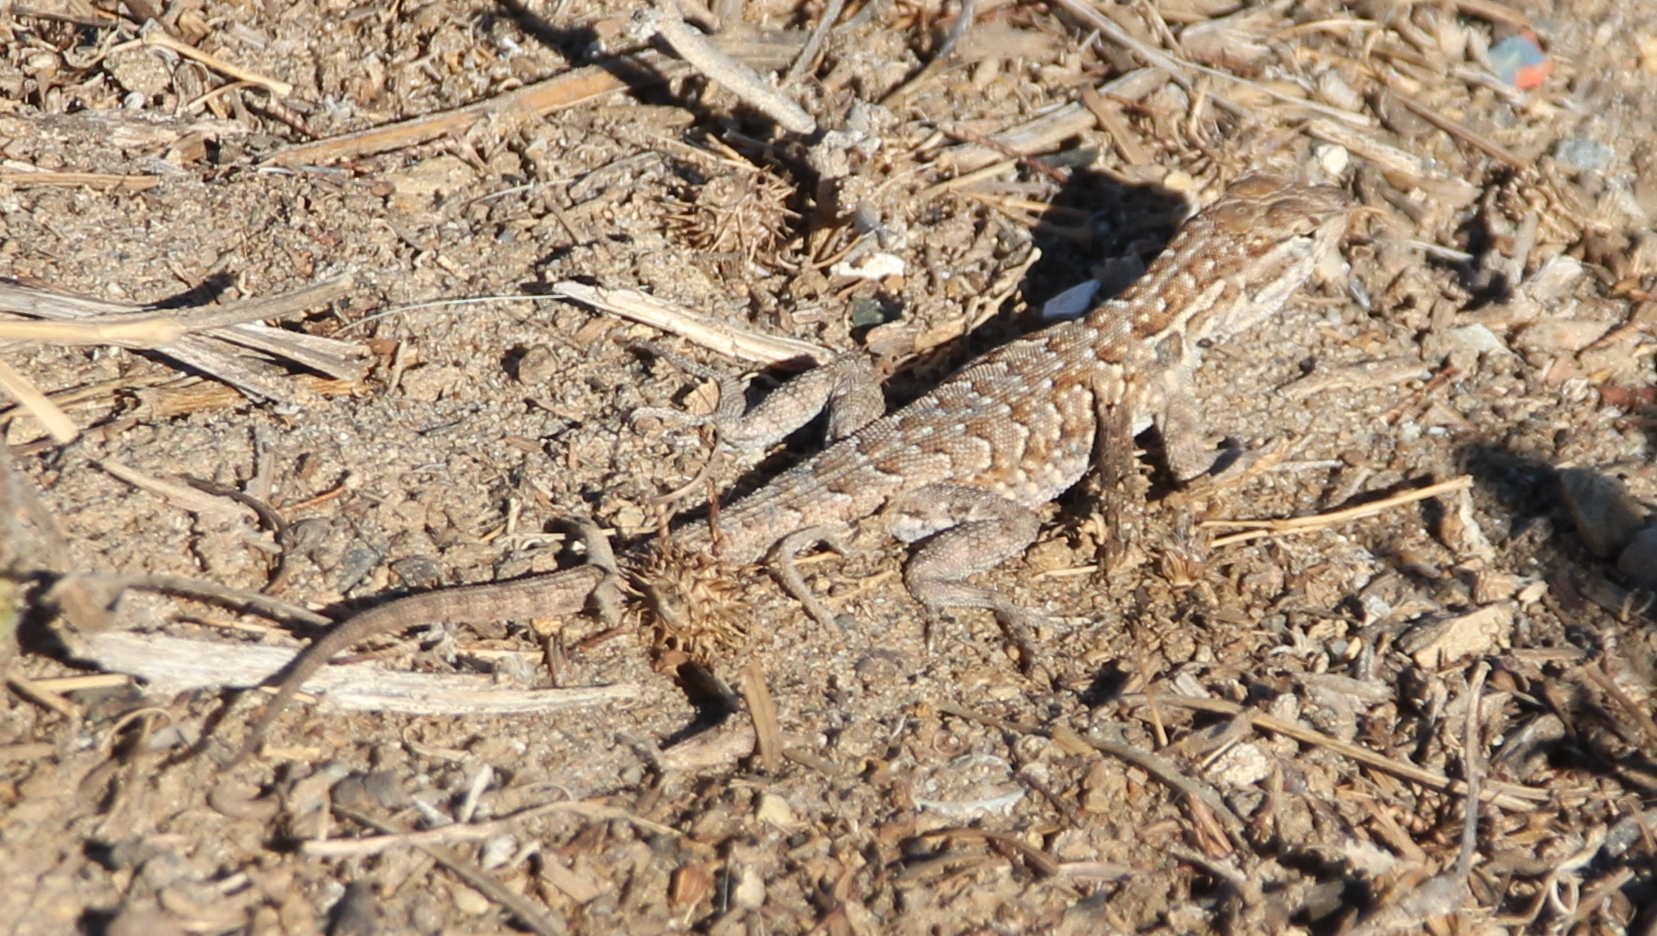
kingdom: Animalia
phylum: Chordata
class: Squamata
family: Phrynosomatidae
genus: Uta
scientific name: Uta stansburiana
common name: Side-blotched lizard
